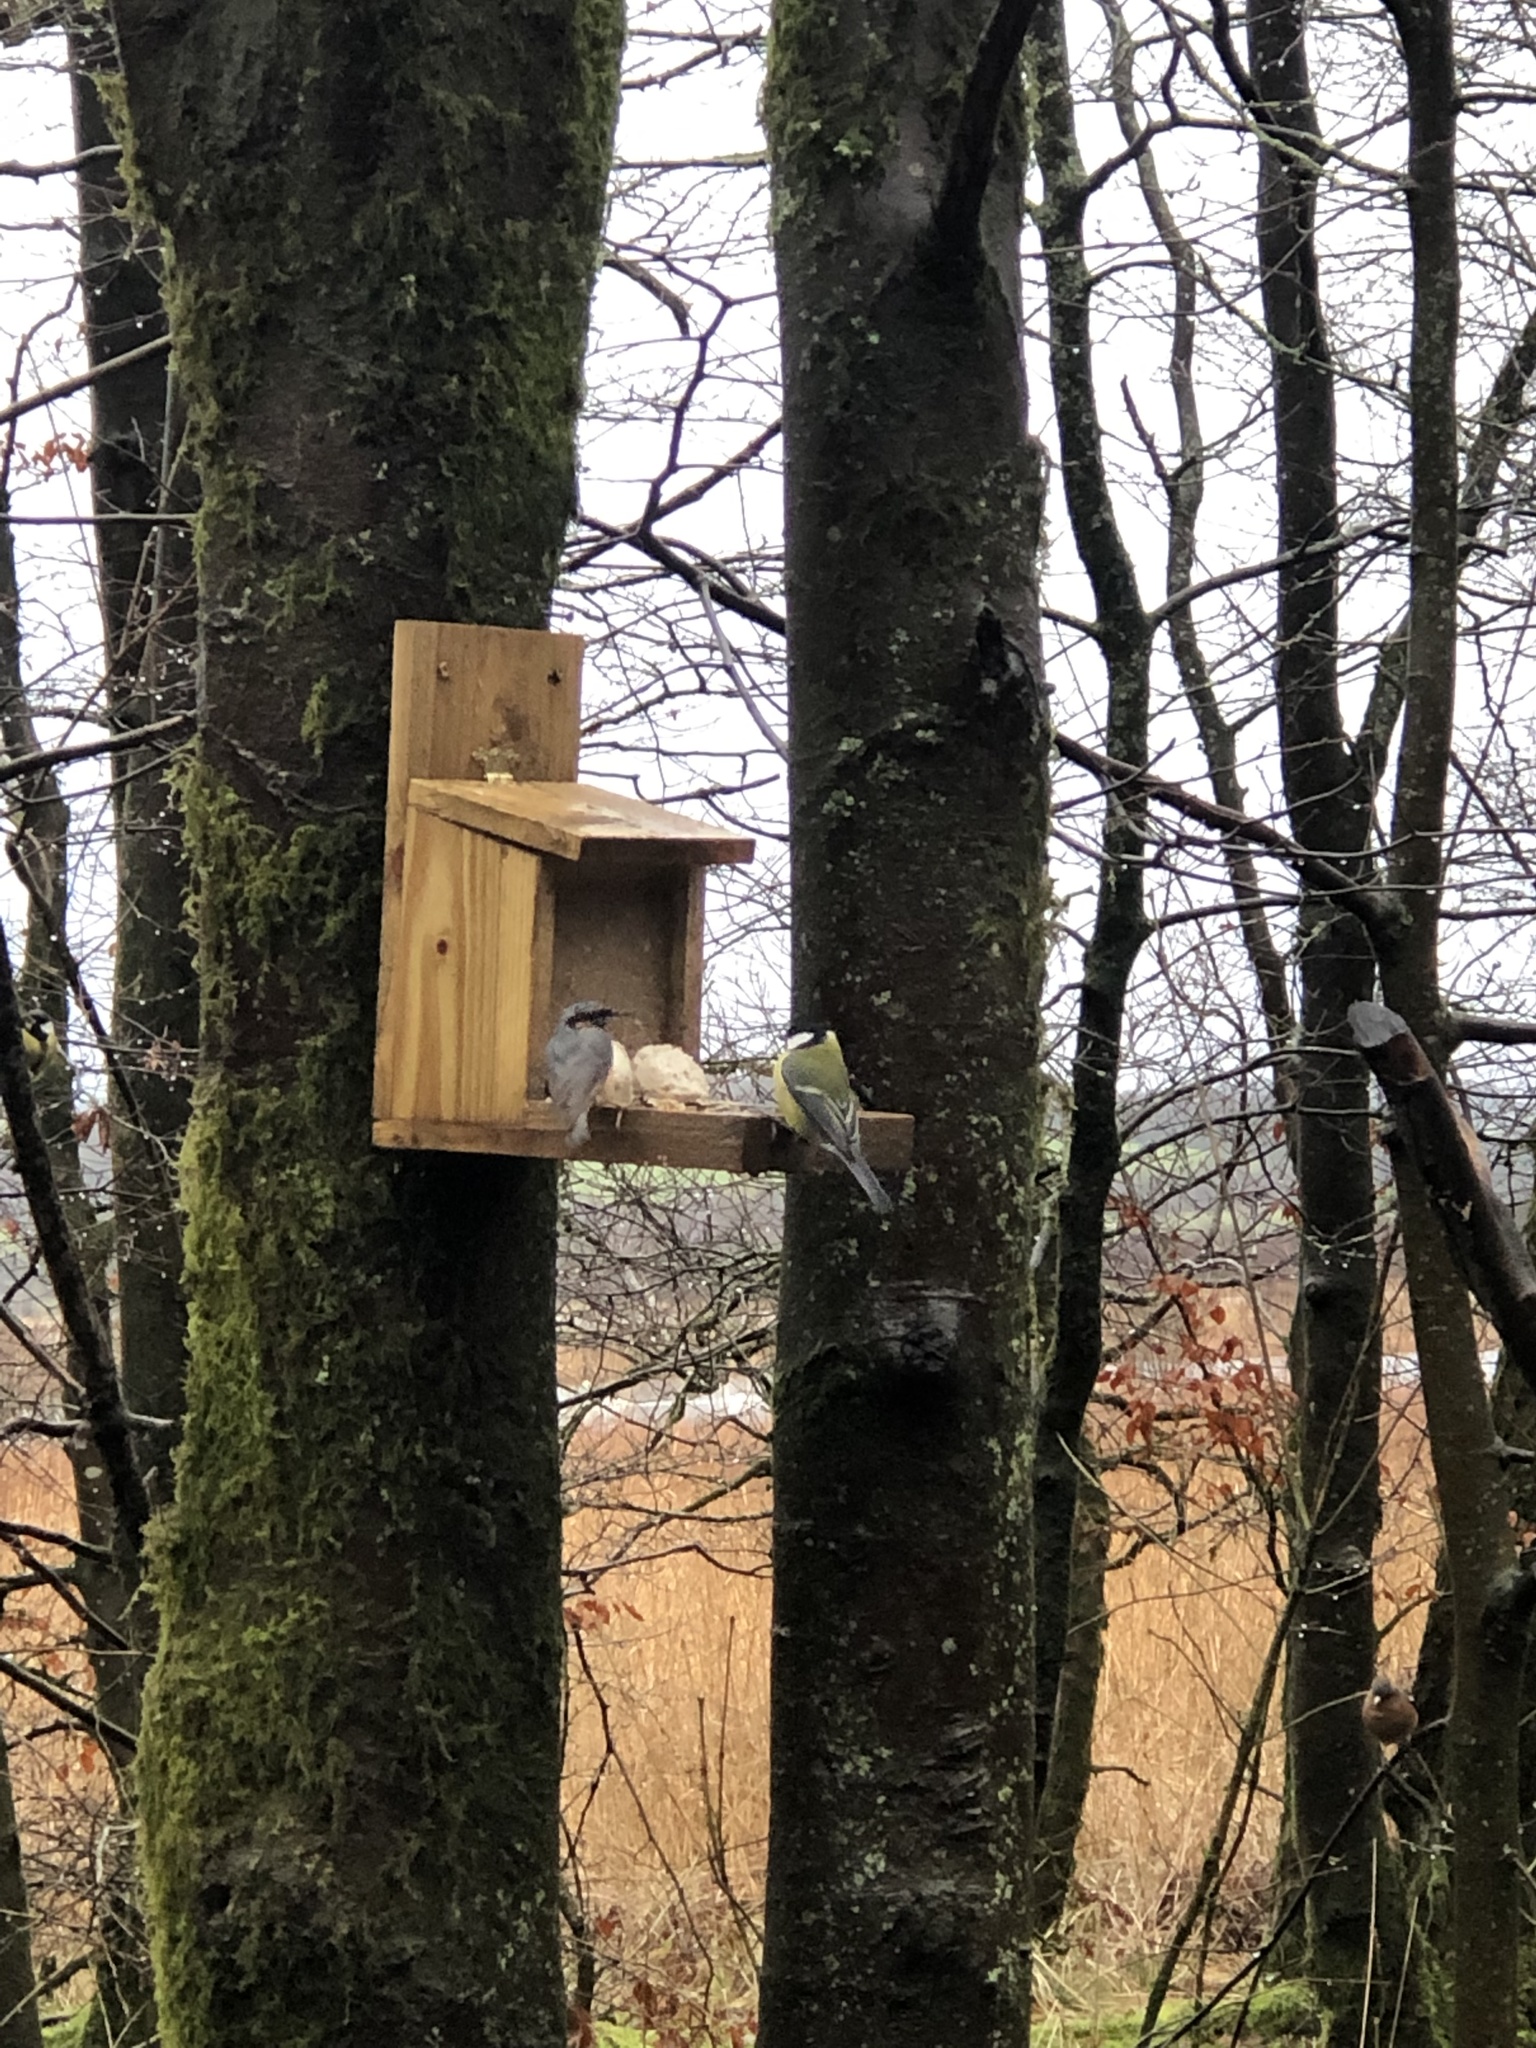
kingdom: Animalia
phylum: Chordata
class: Aves
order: Passeriformes
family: Sittidae
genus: Sitta
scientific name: Sitta europaea
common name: Eurasian nuthatch
